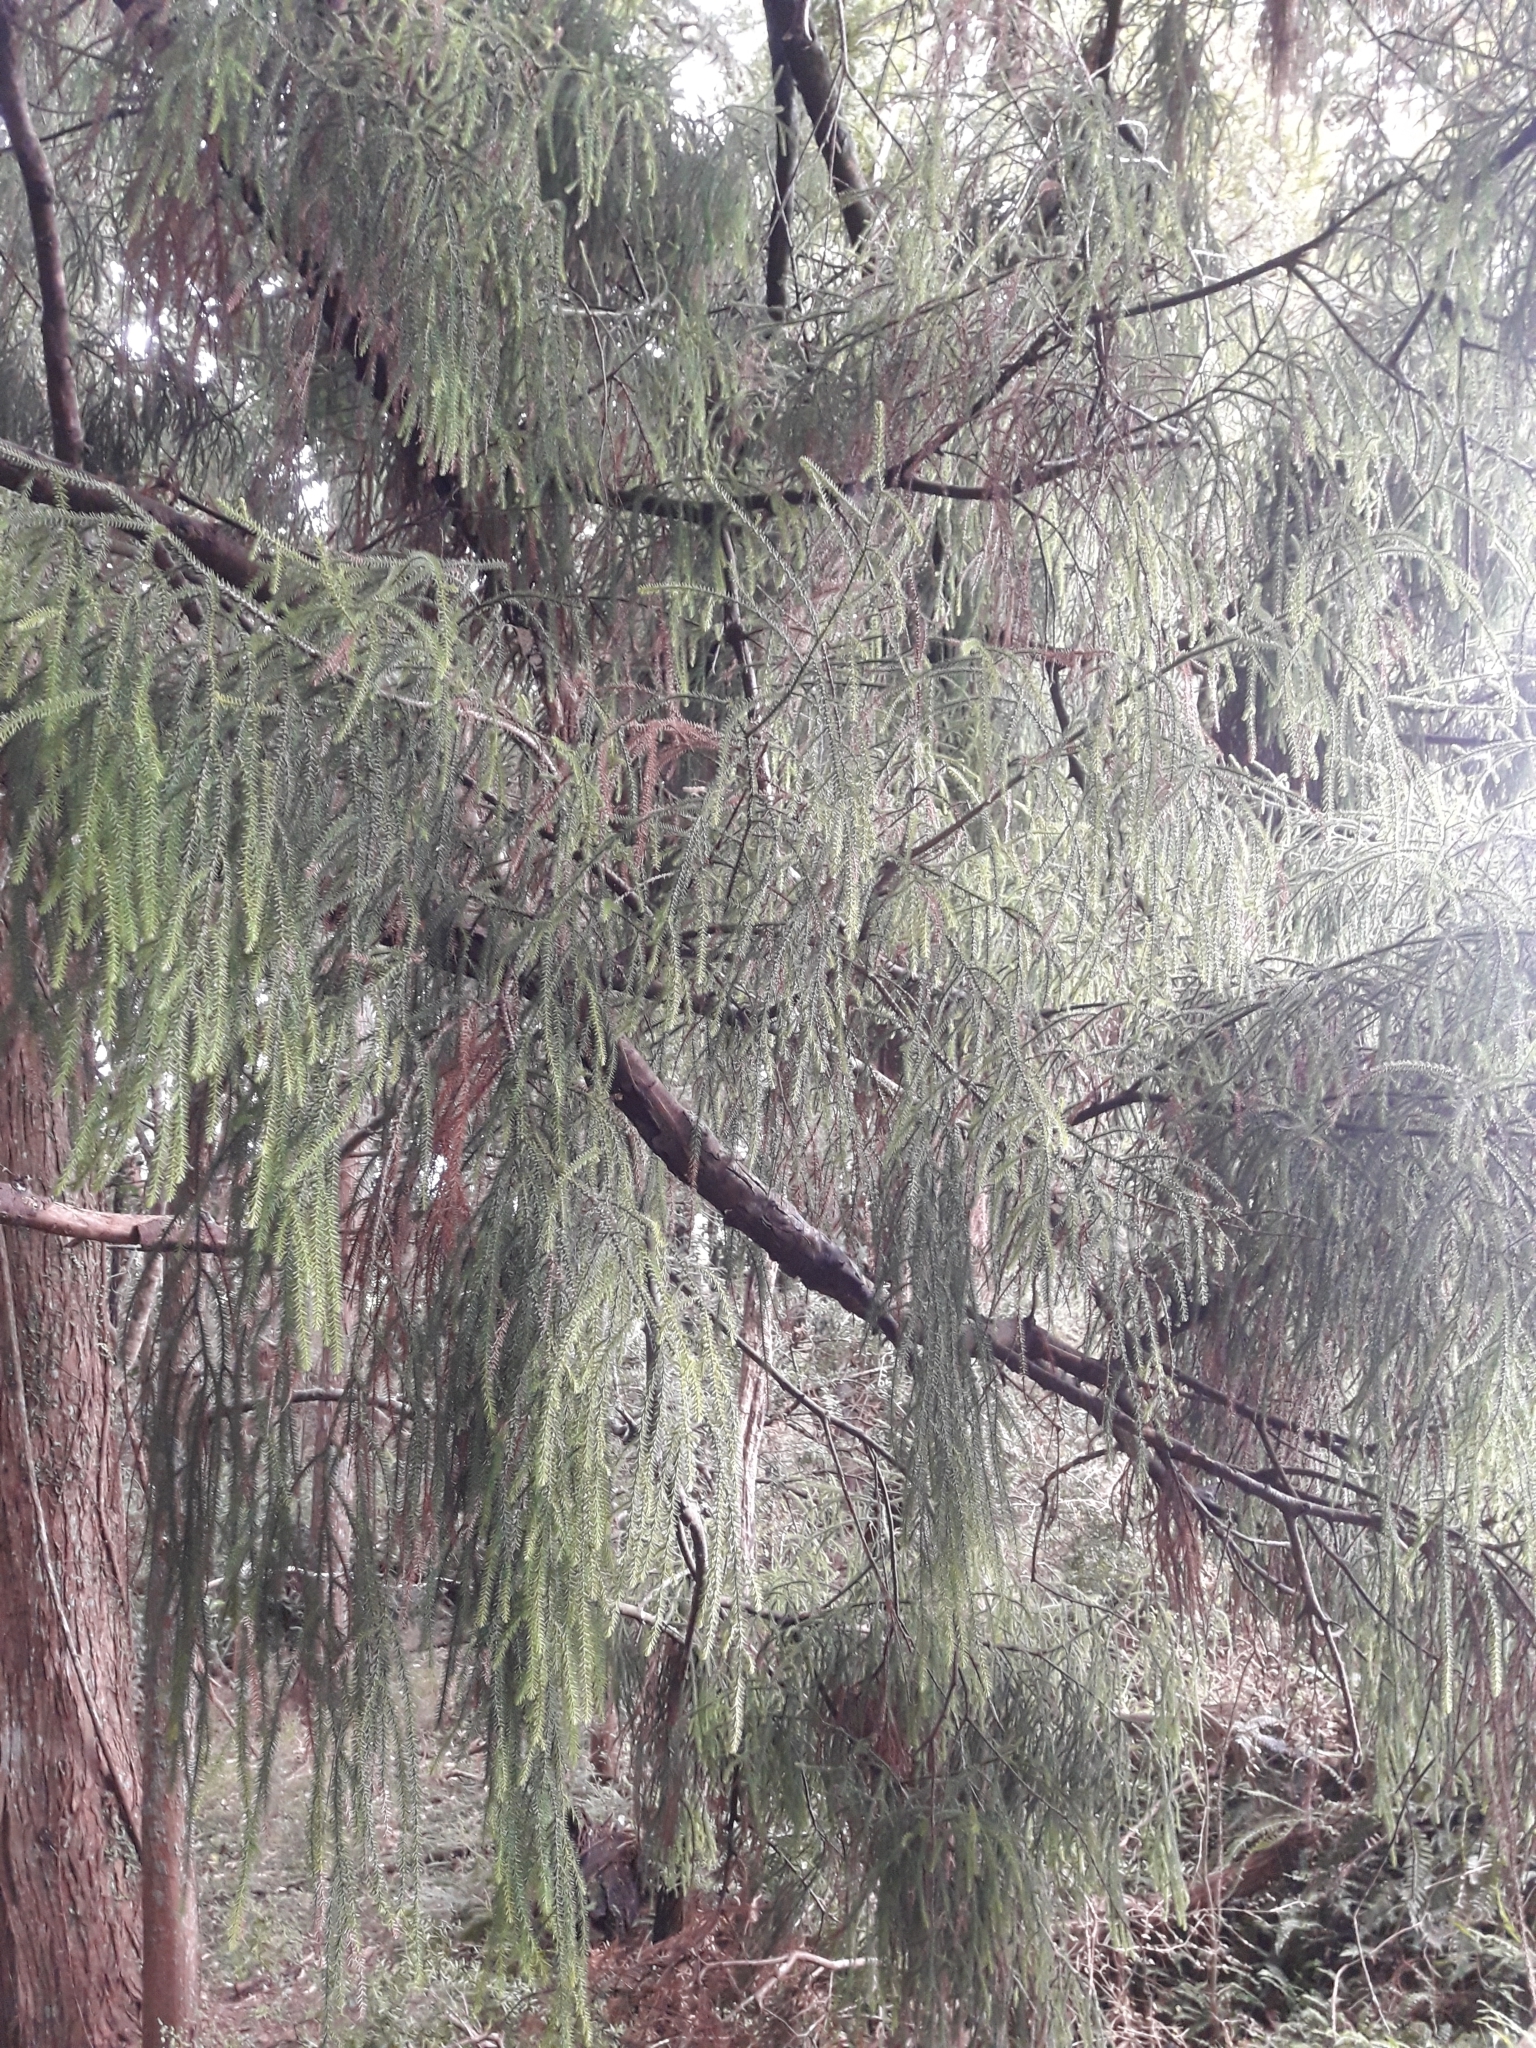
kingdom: Plantae
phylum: Tracheophyta
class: Pinopsida
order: Pinales
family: Podocarpaceae
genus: Dacrydium
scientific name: Dacrydium cupressinum
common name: Red pine
